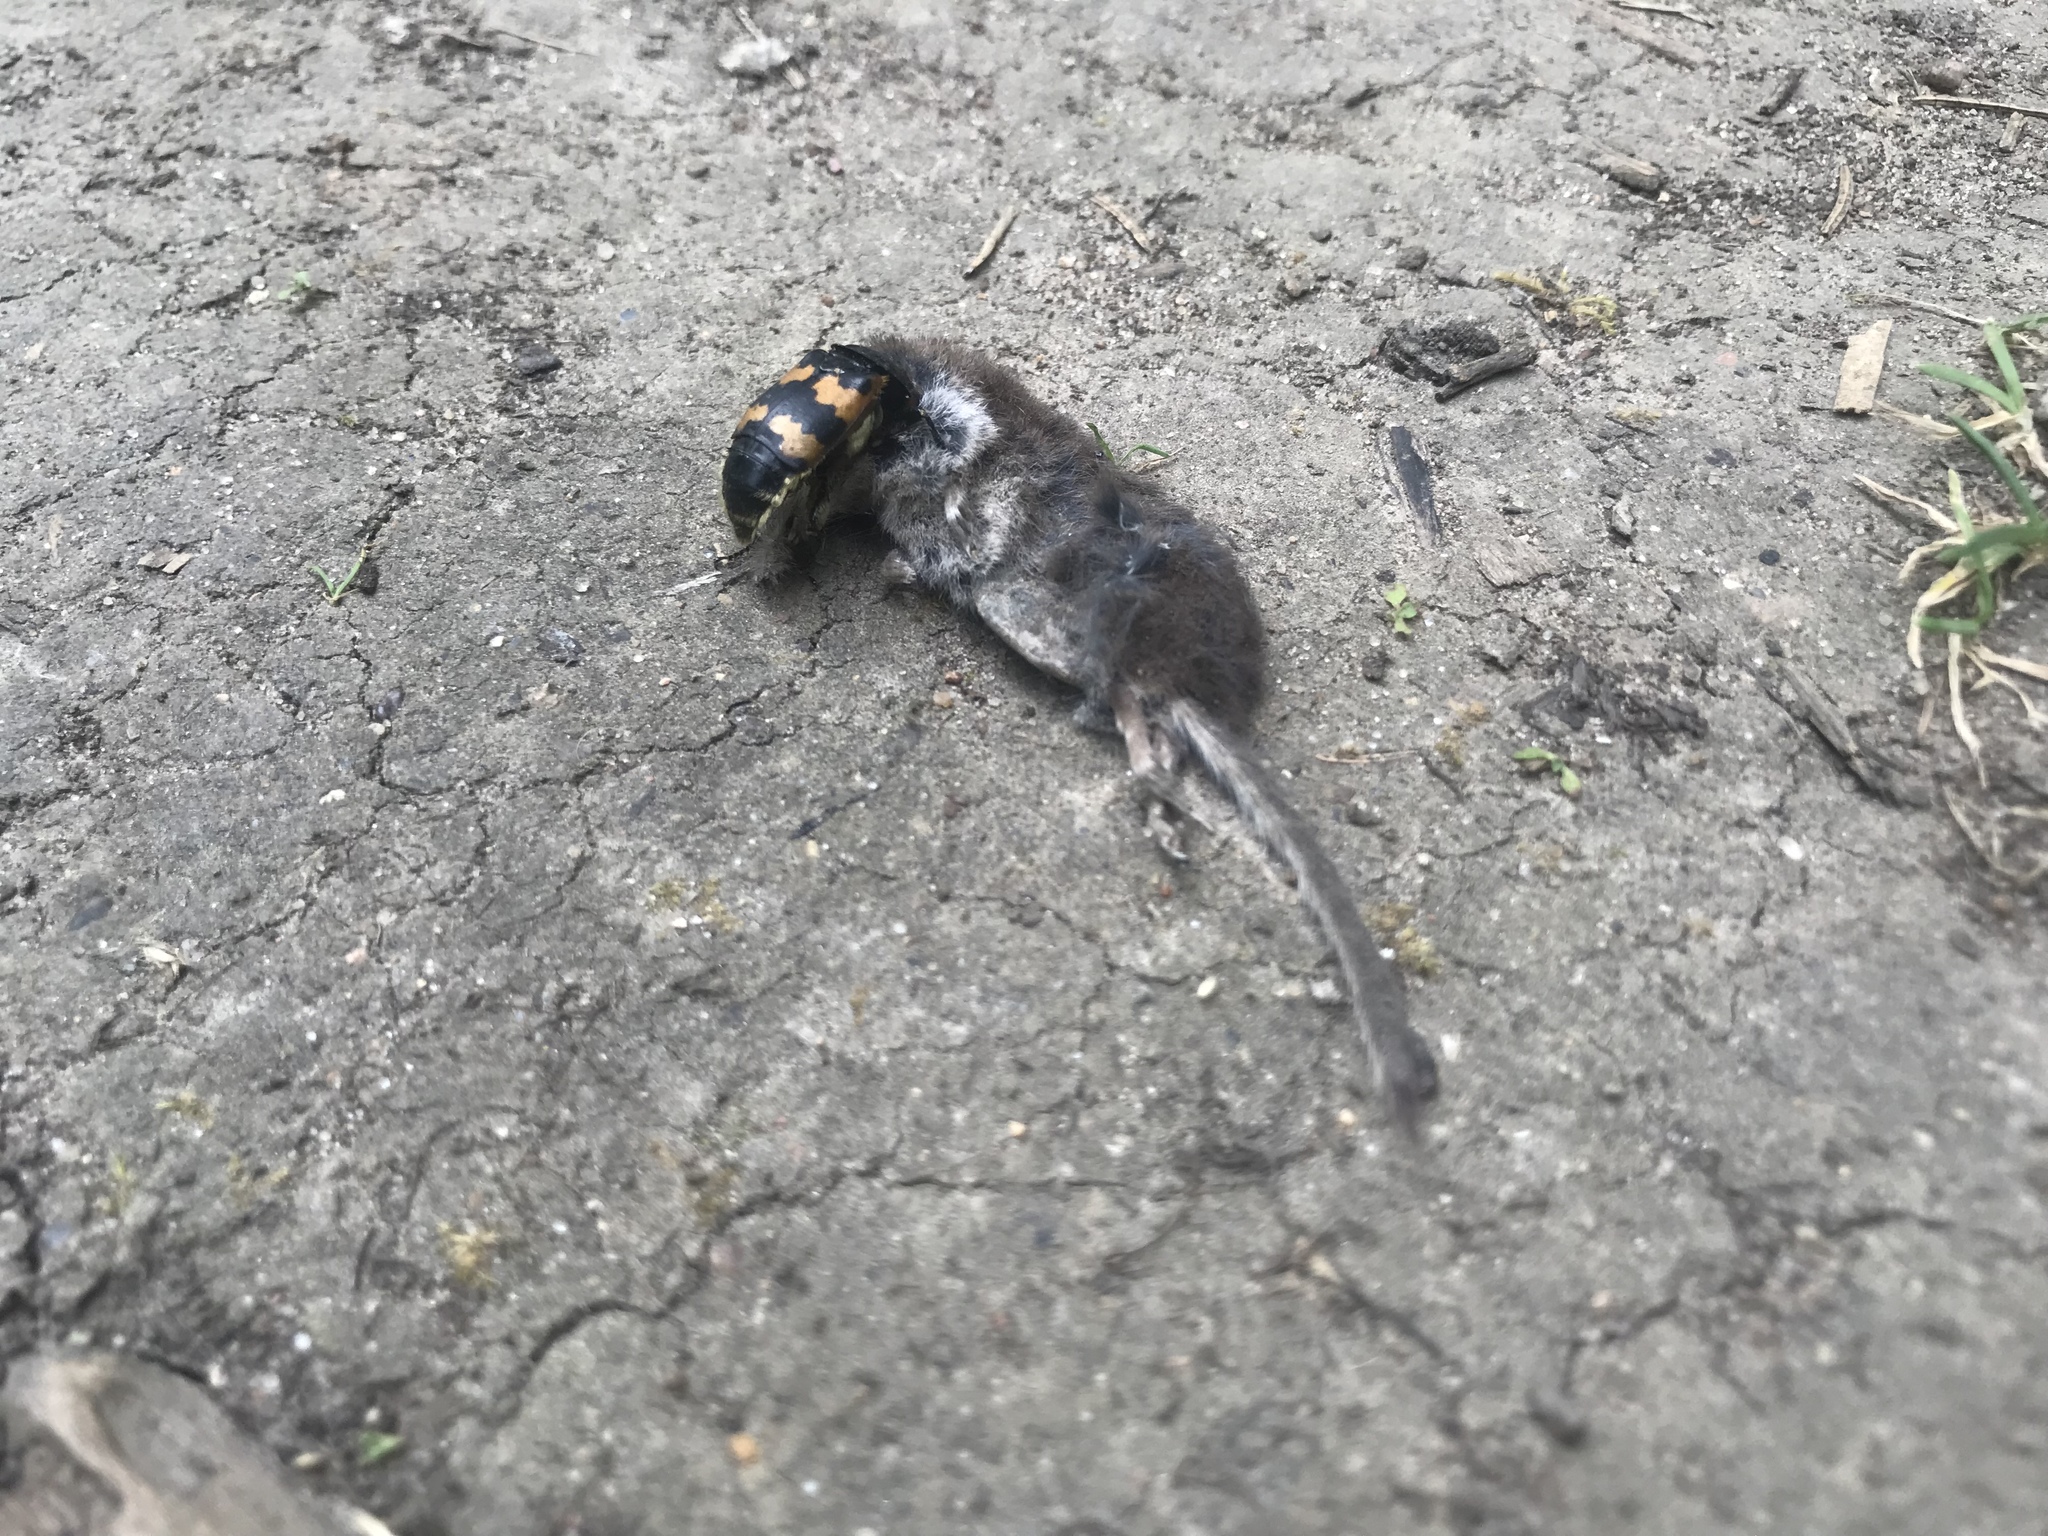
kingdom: Animalia
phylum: Arthropoda
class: Insecta
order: Coleoptera
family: Staphylinidae
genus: Nicrophorus
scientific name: Nicrophorus vespillo
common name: Common burying beetle
